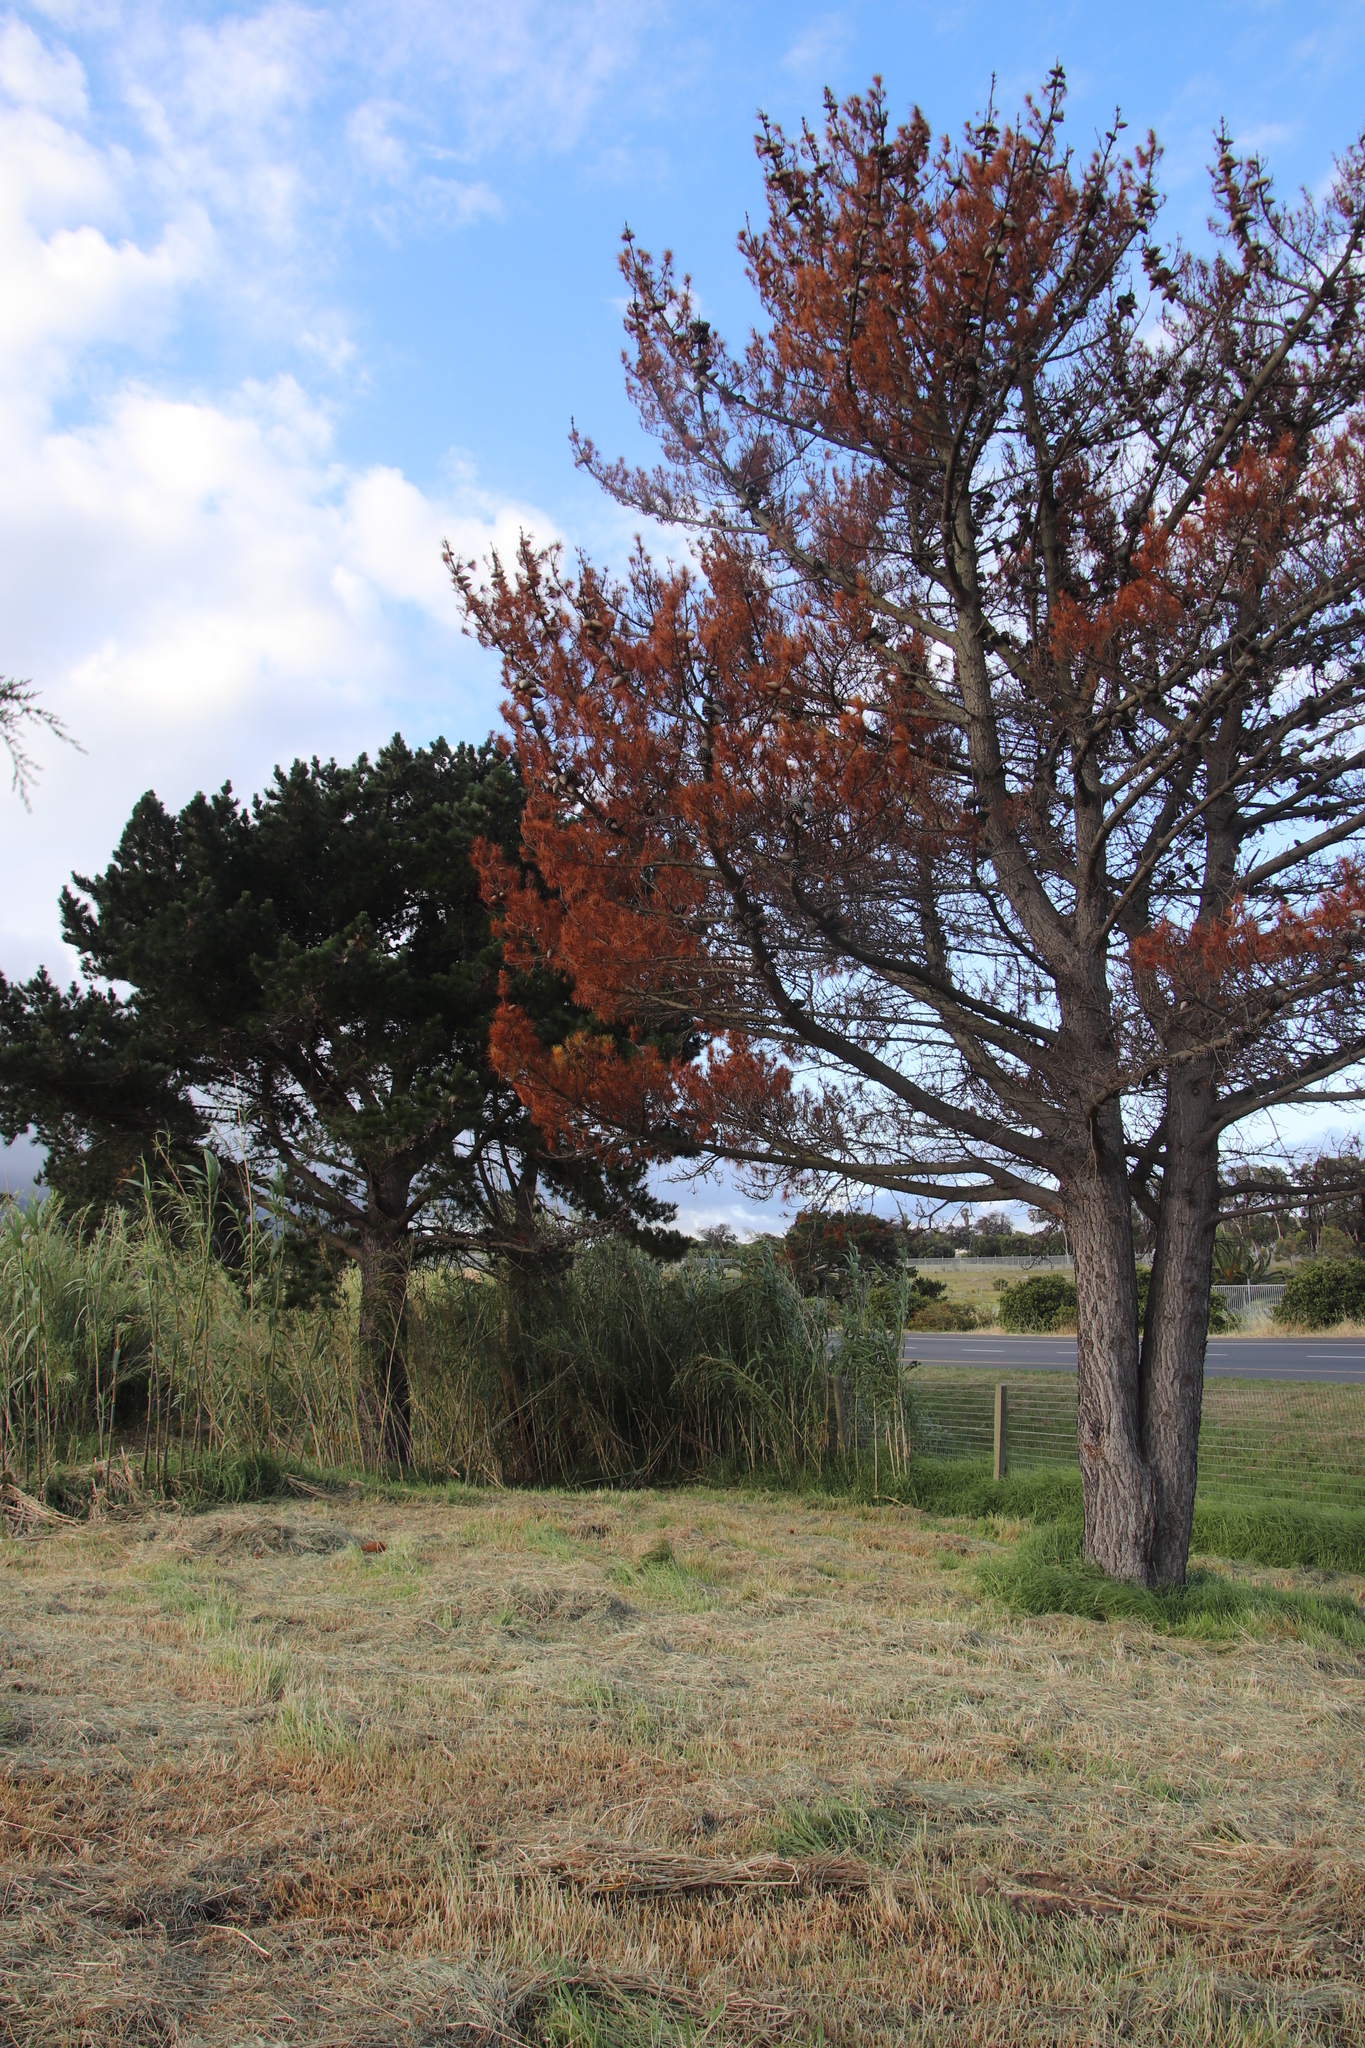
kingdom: Plantae
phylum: Tracheophyta
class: Pinopsida
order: Pinales
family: Pinaceae
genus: Pinus
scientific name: Pinus radiata
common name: Monterey pine
